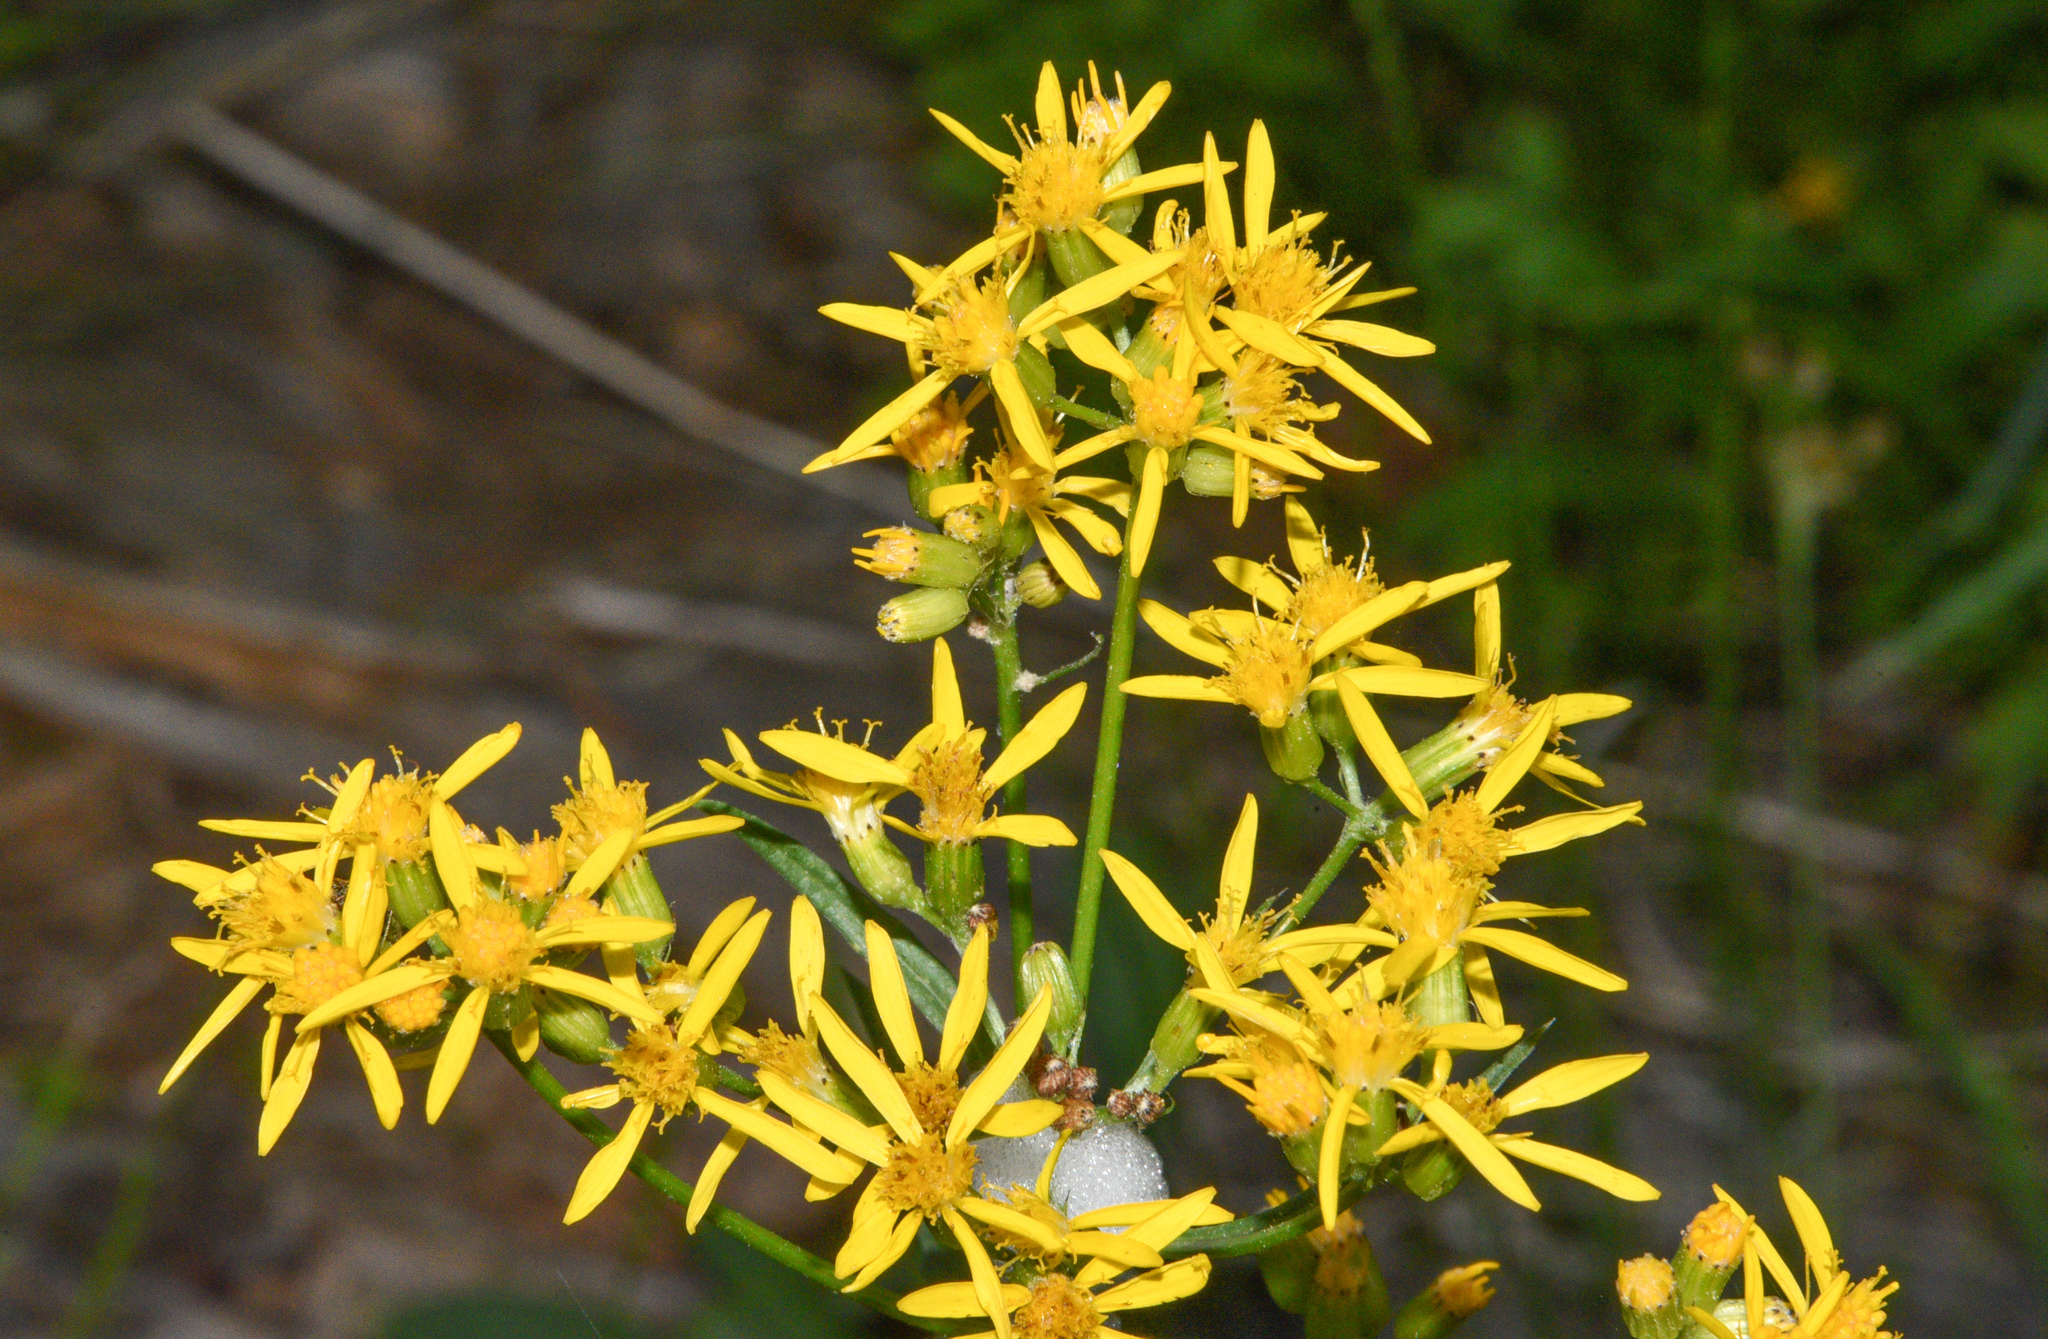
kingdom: Plantae
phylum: Tracheophyta
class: Magnoliopsida
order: Asterales
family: Asteraceae
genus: Senecio
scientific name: Senecio triangularis
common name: Arrowleaf butterweed
